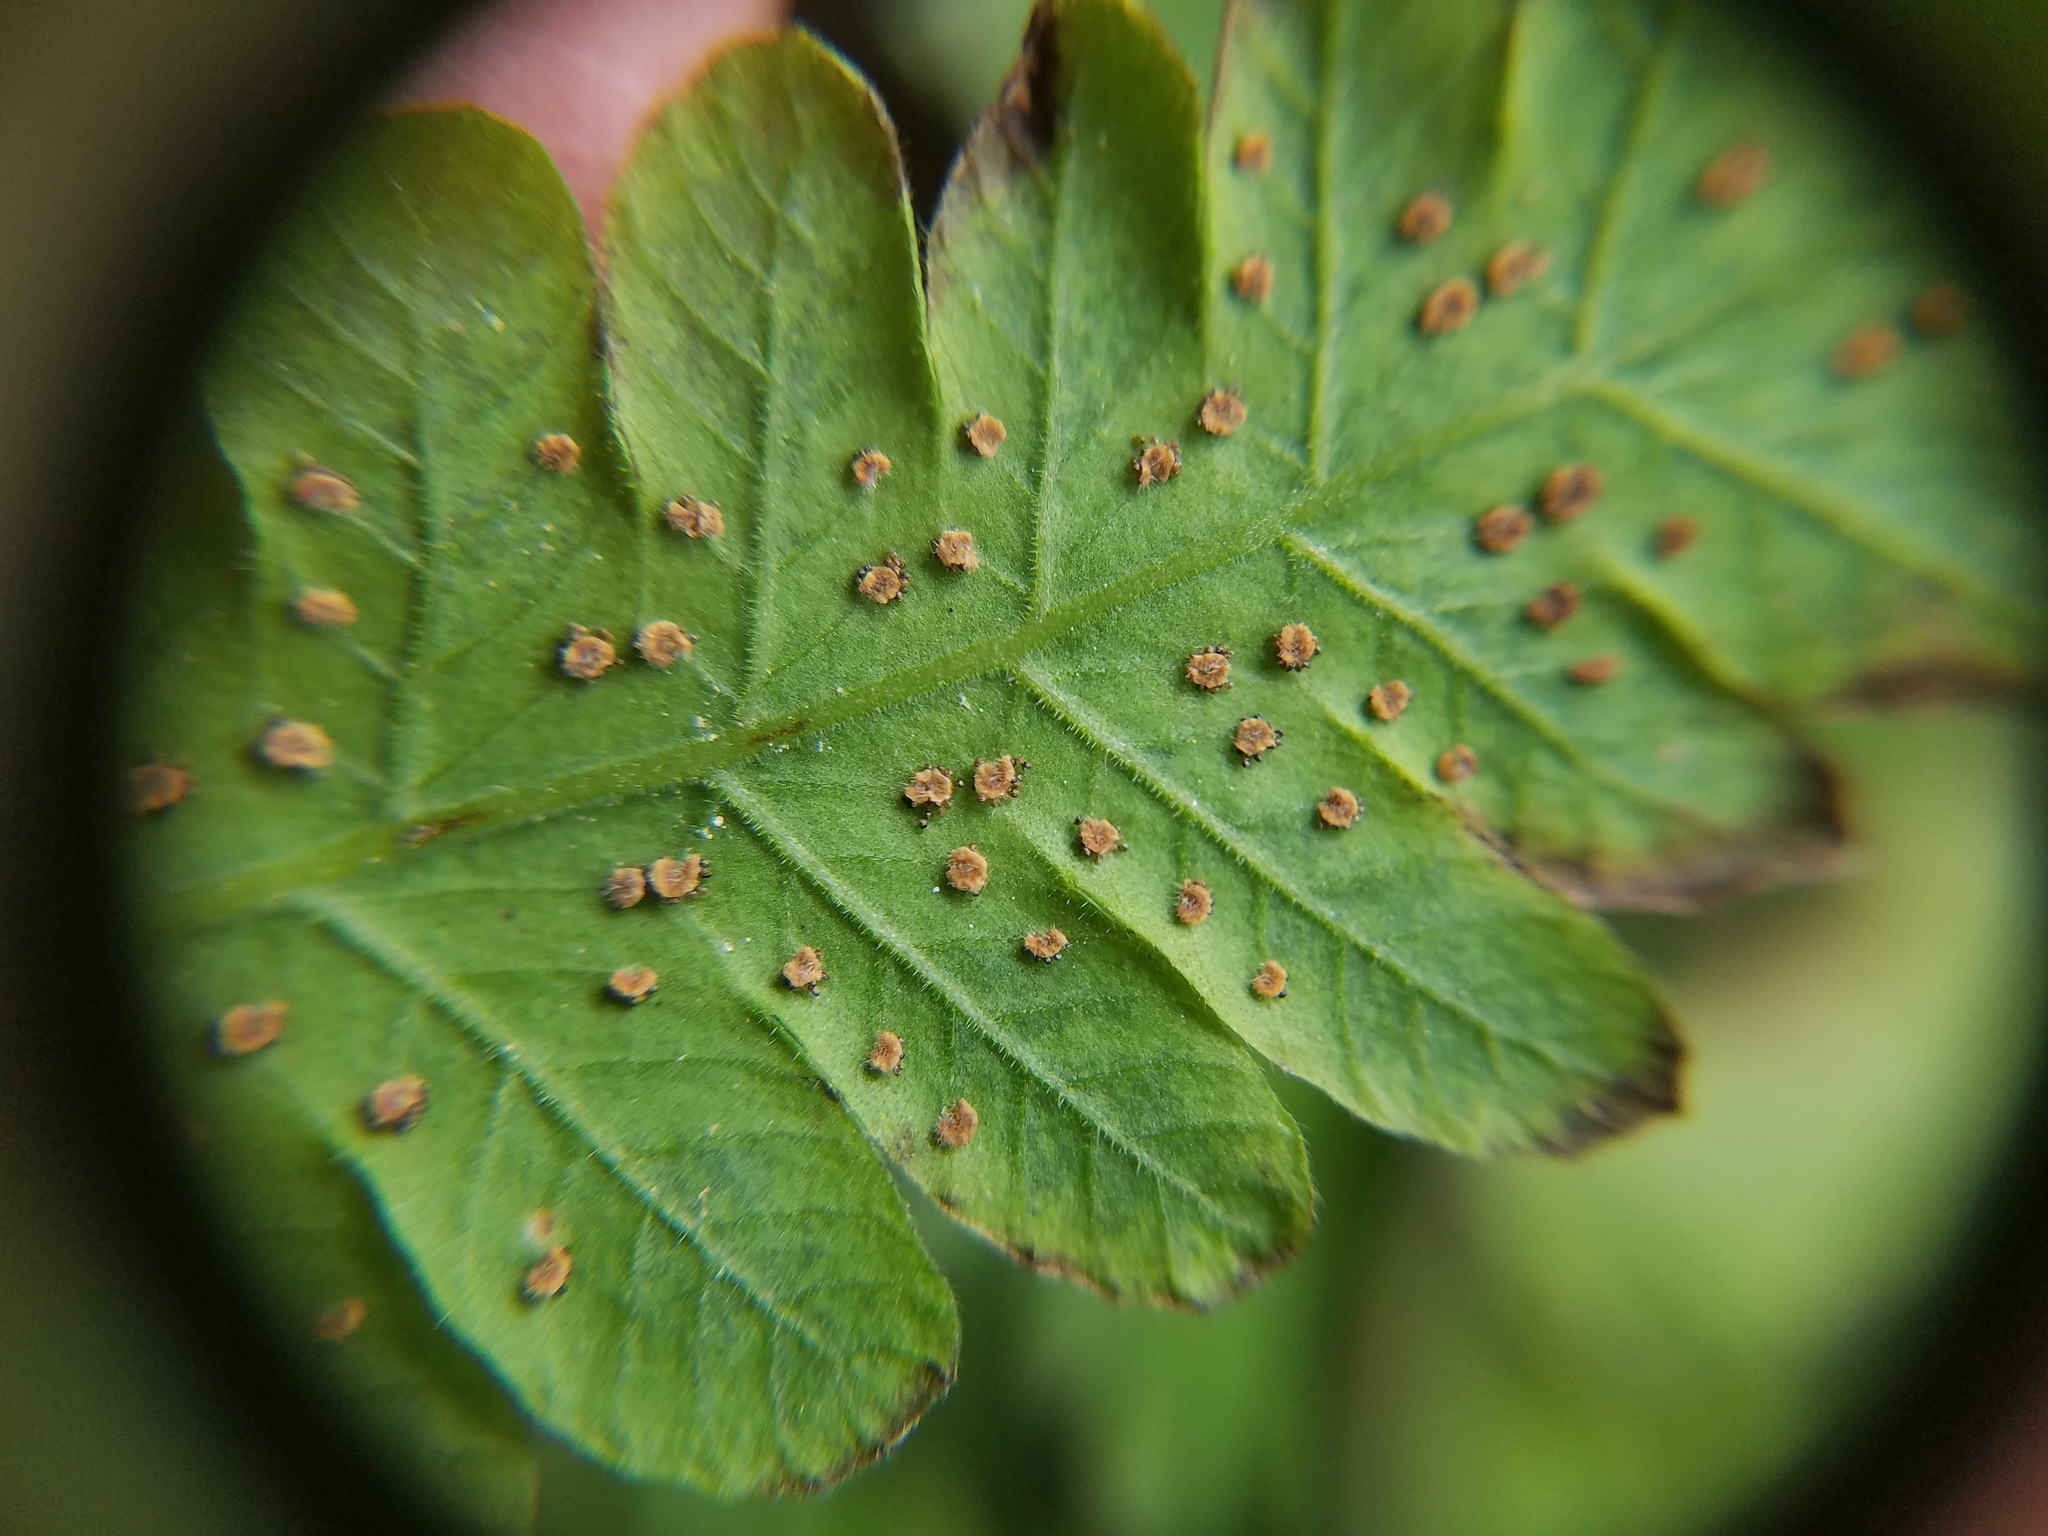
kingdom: Plantae
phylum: Tracheophyta
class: Polypodiopsida
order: Polypodiales
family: Thelypteridaceae
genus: Christella
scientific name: Christella dentata
